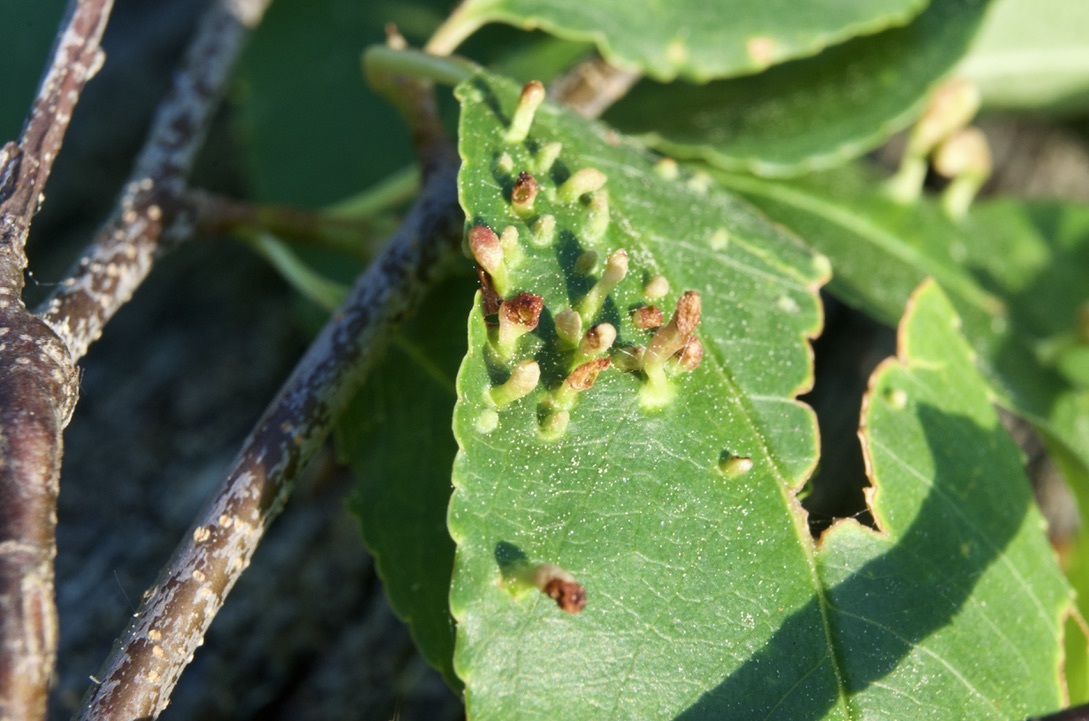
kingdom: Animalia
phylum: Arthropoda
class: Arachnida
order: Trombidiformes
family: Eriophyidae
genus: Eriophyes
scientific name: Eriophyes
